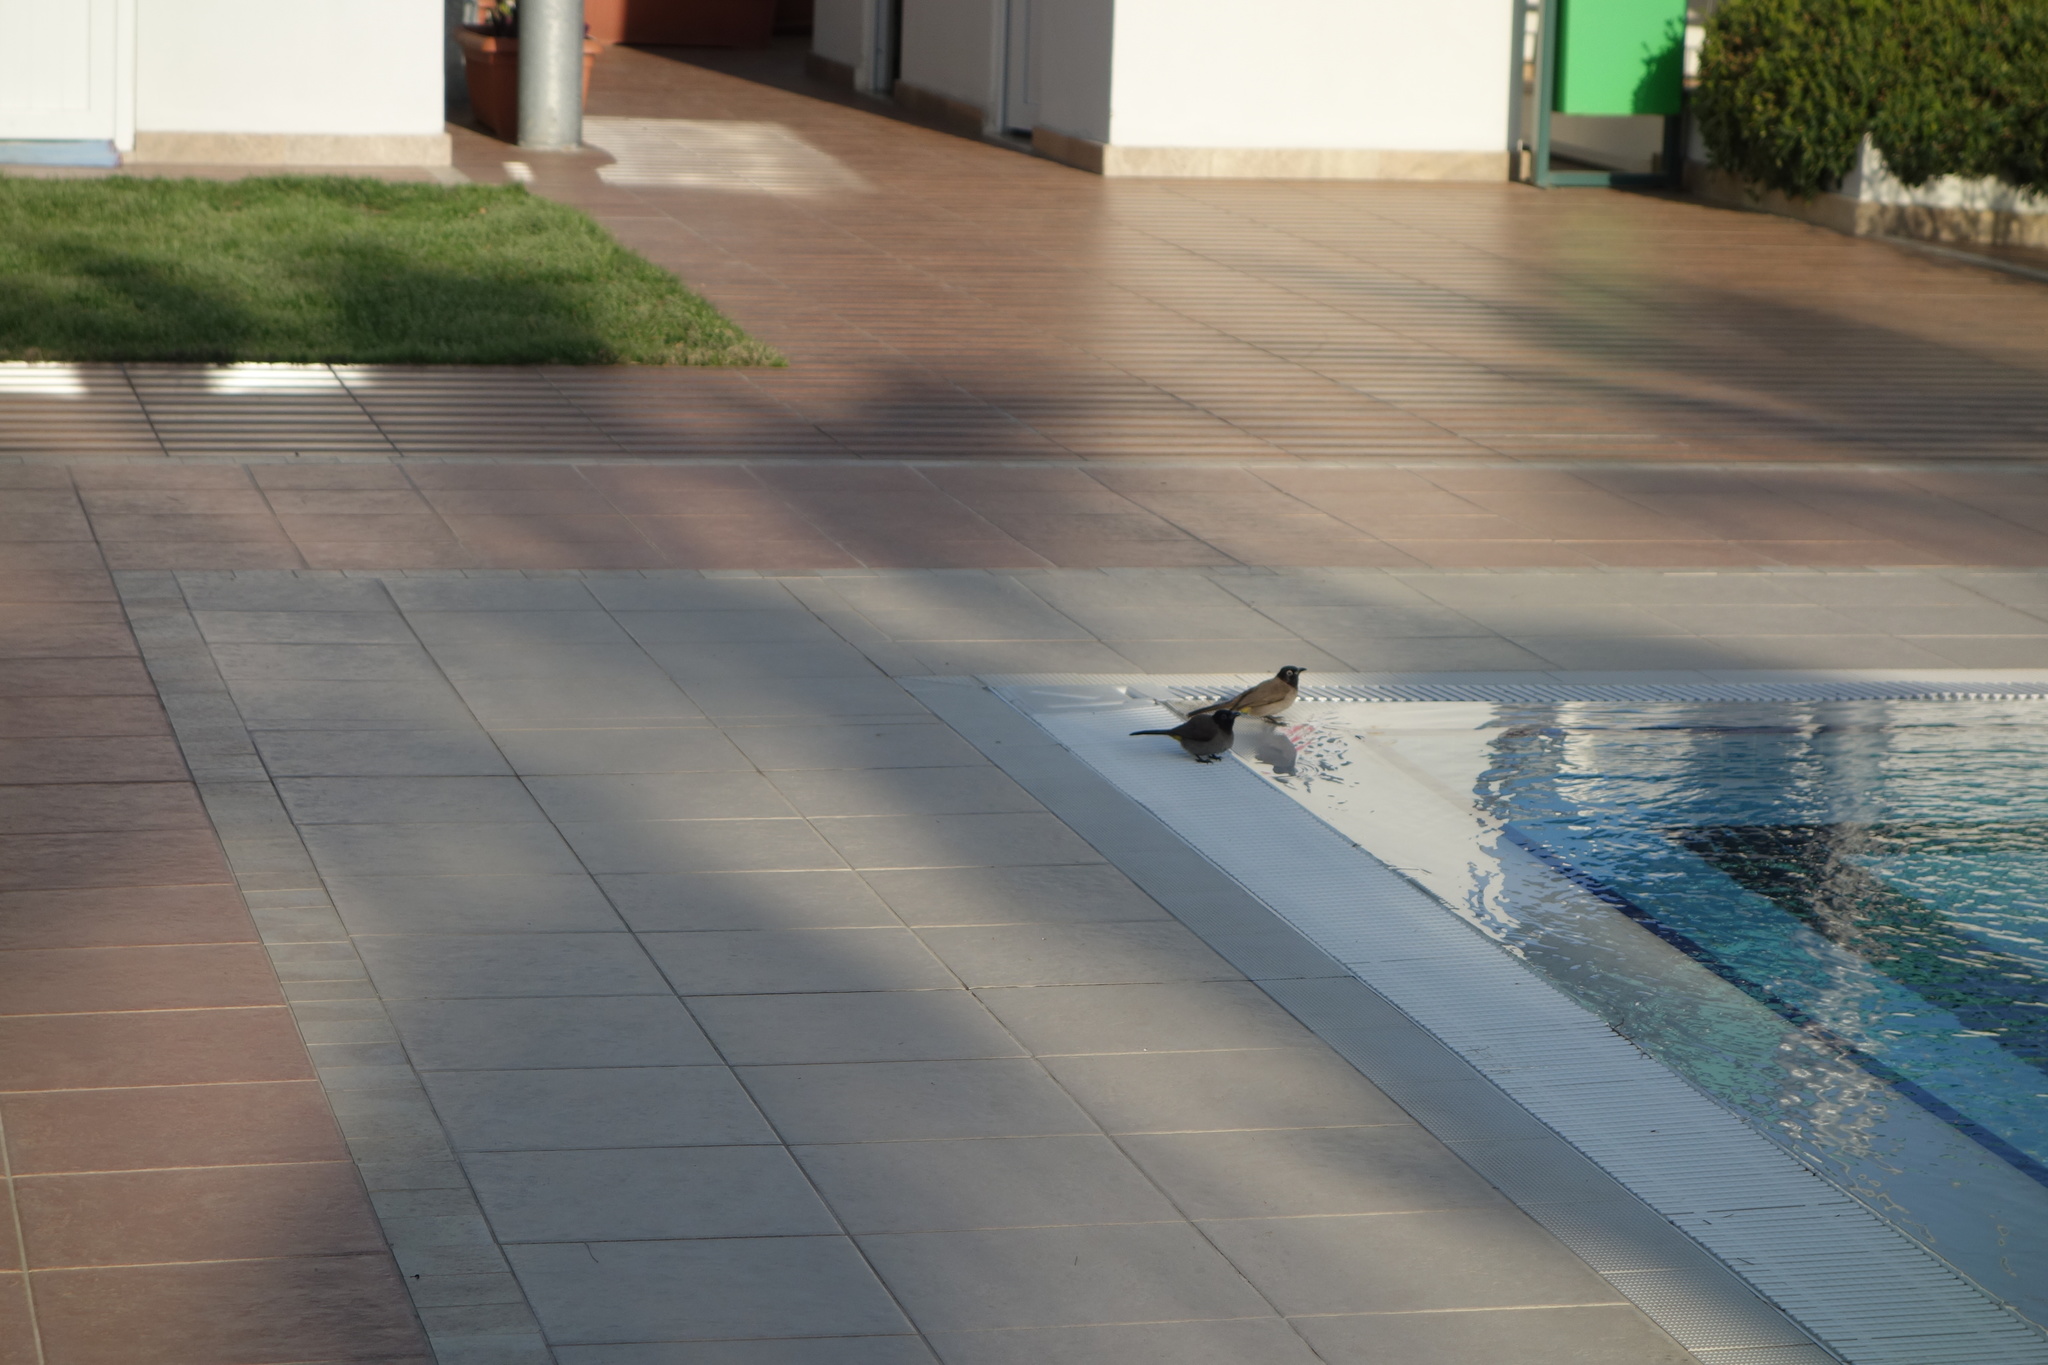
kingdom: Animalia
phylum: Chordata
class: Aves
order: Passeriformes
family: Pycnonotidae
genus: Pycnonotus
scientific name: Pycnonotus xanthopygos
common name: White-spectacled bulbul
